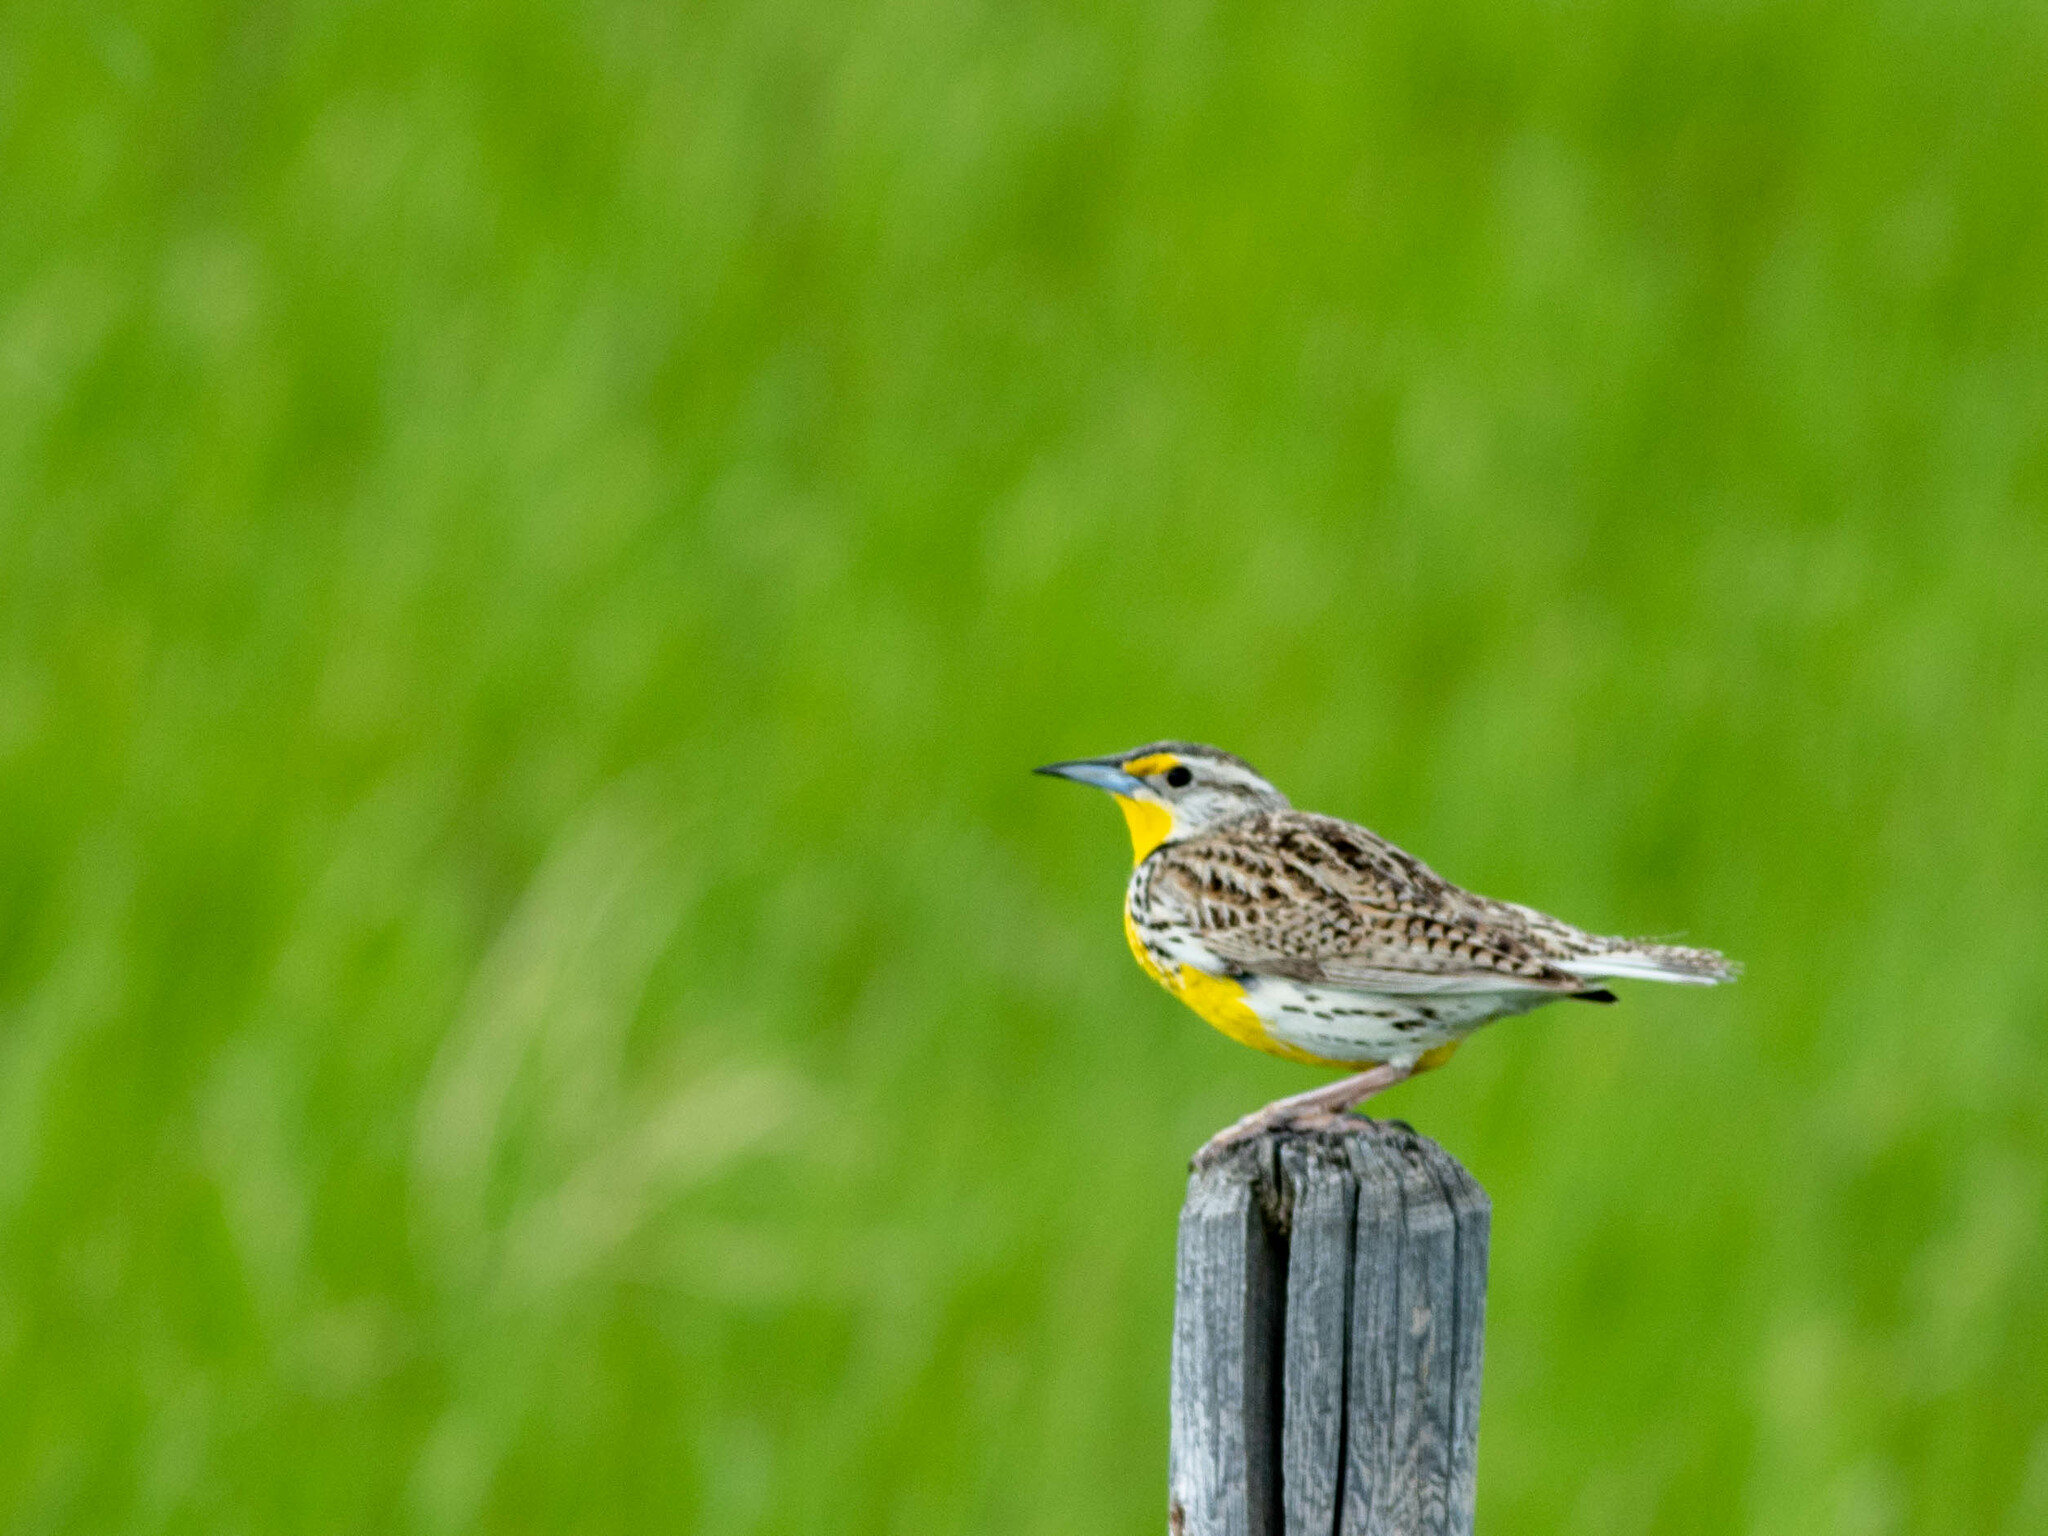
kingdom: Animalia
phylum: Chordata
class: Aves
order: Passeriformes
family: Icteridae
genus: Sturnella
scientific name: Sturnella neglecta
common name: Western meadowlark
